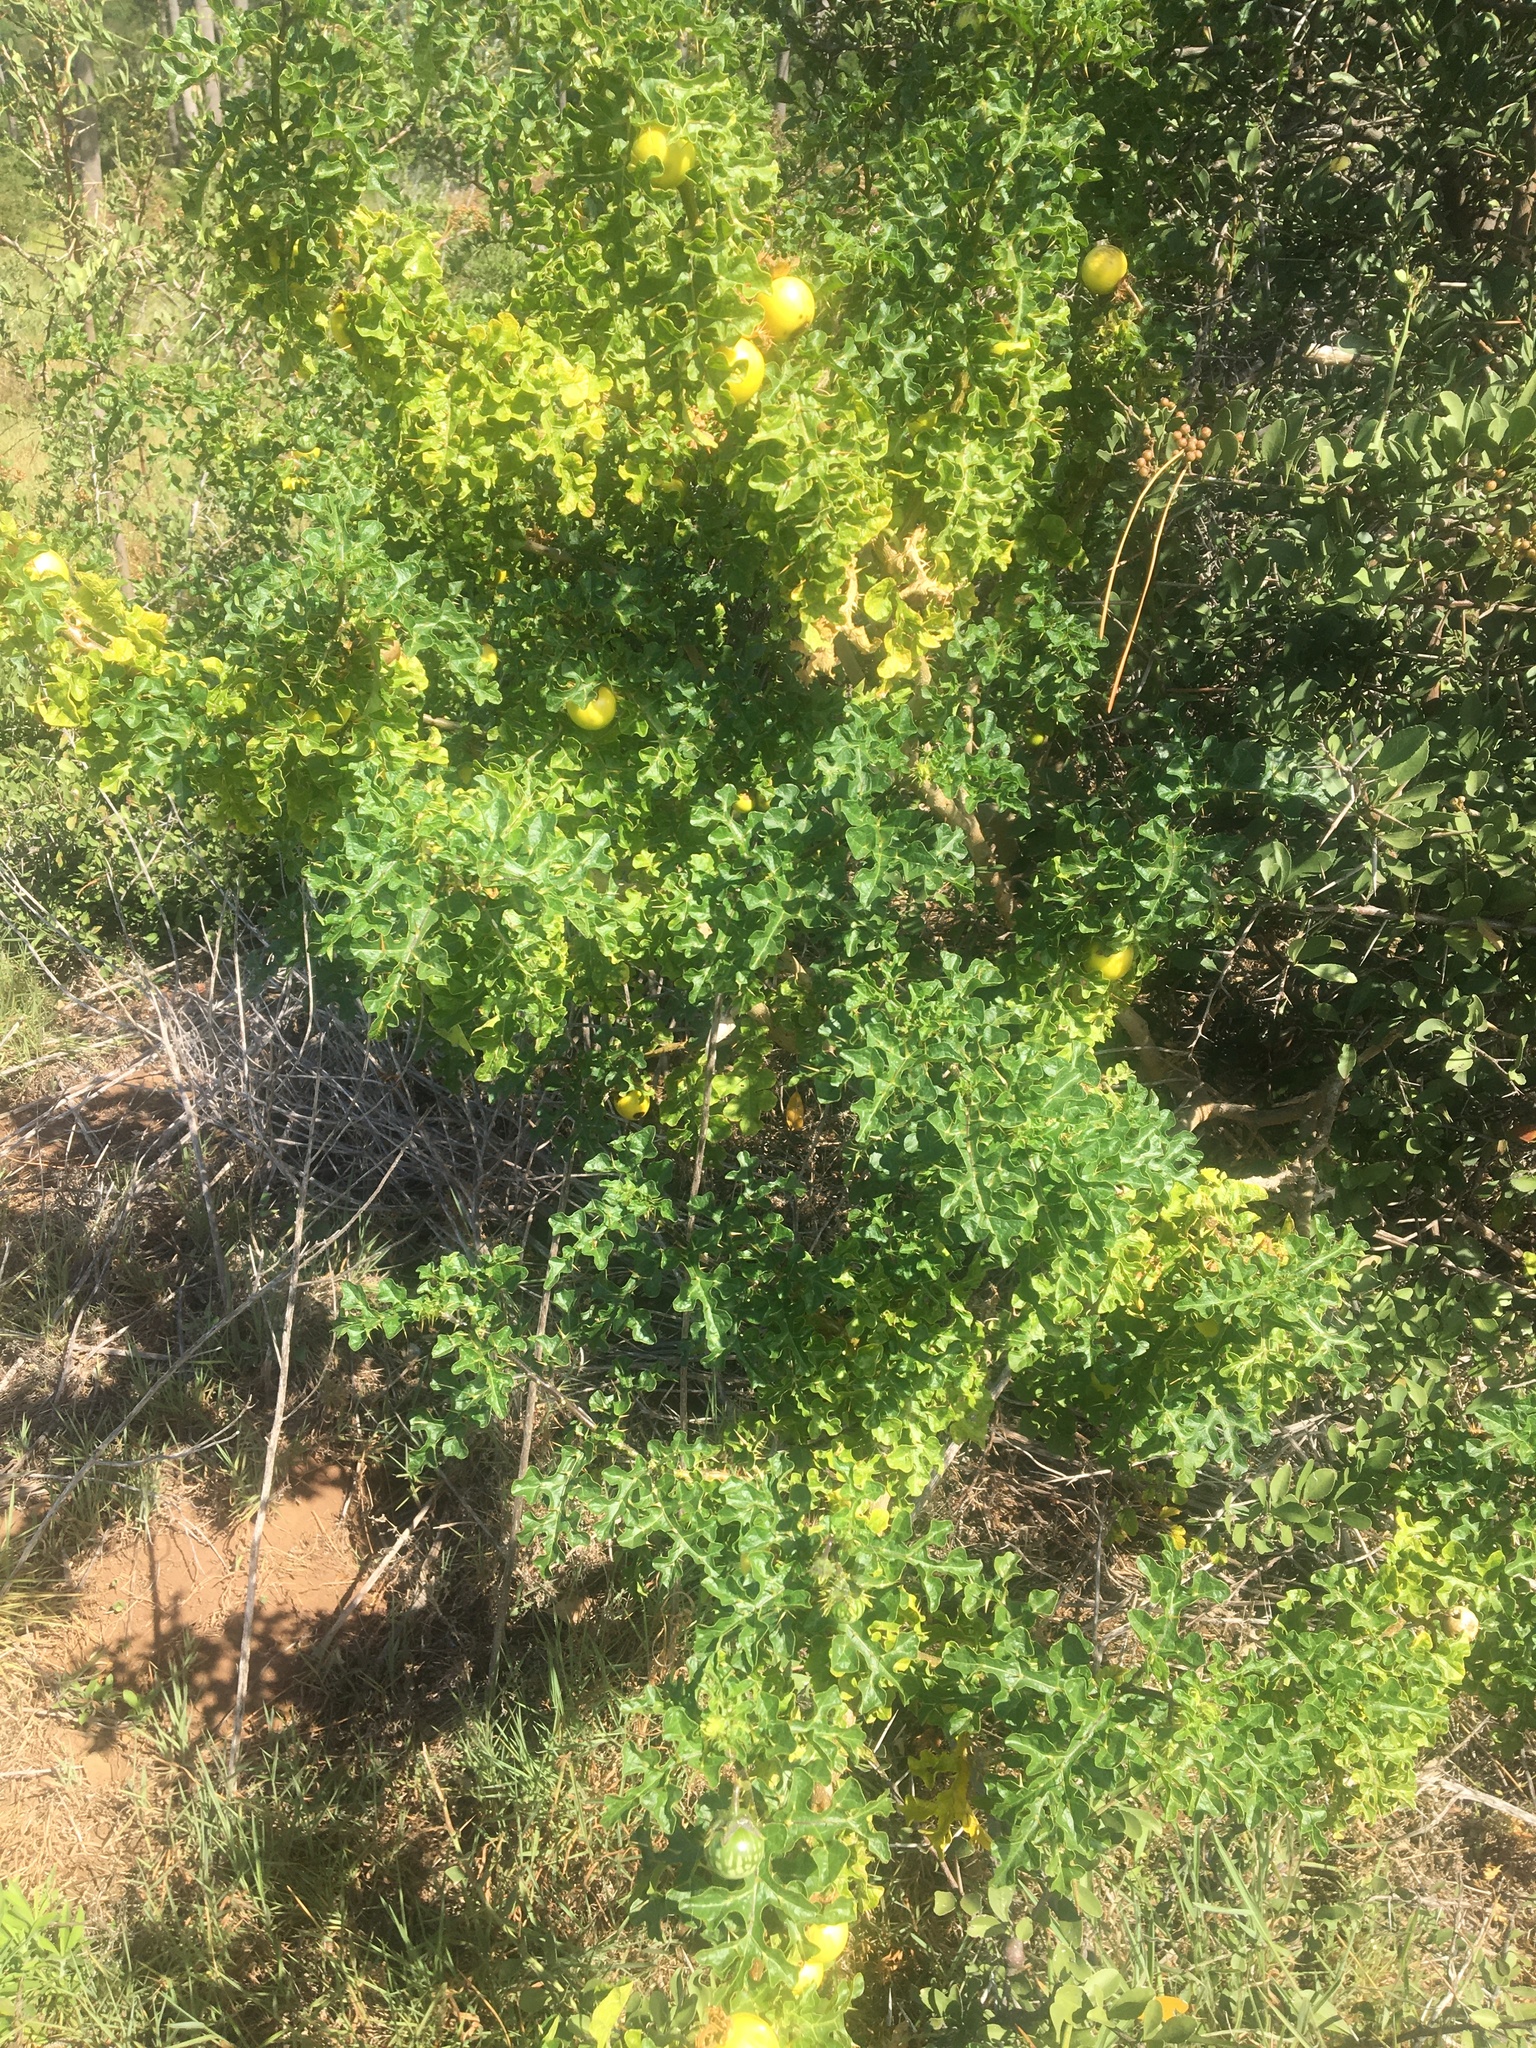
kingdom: Plantae
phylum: Tracheophyta
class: Magnoliopsida
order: Solanales
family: Solanaceae
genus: Solanum
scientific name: Solanum linnaeanum
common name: Nightshade
